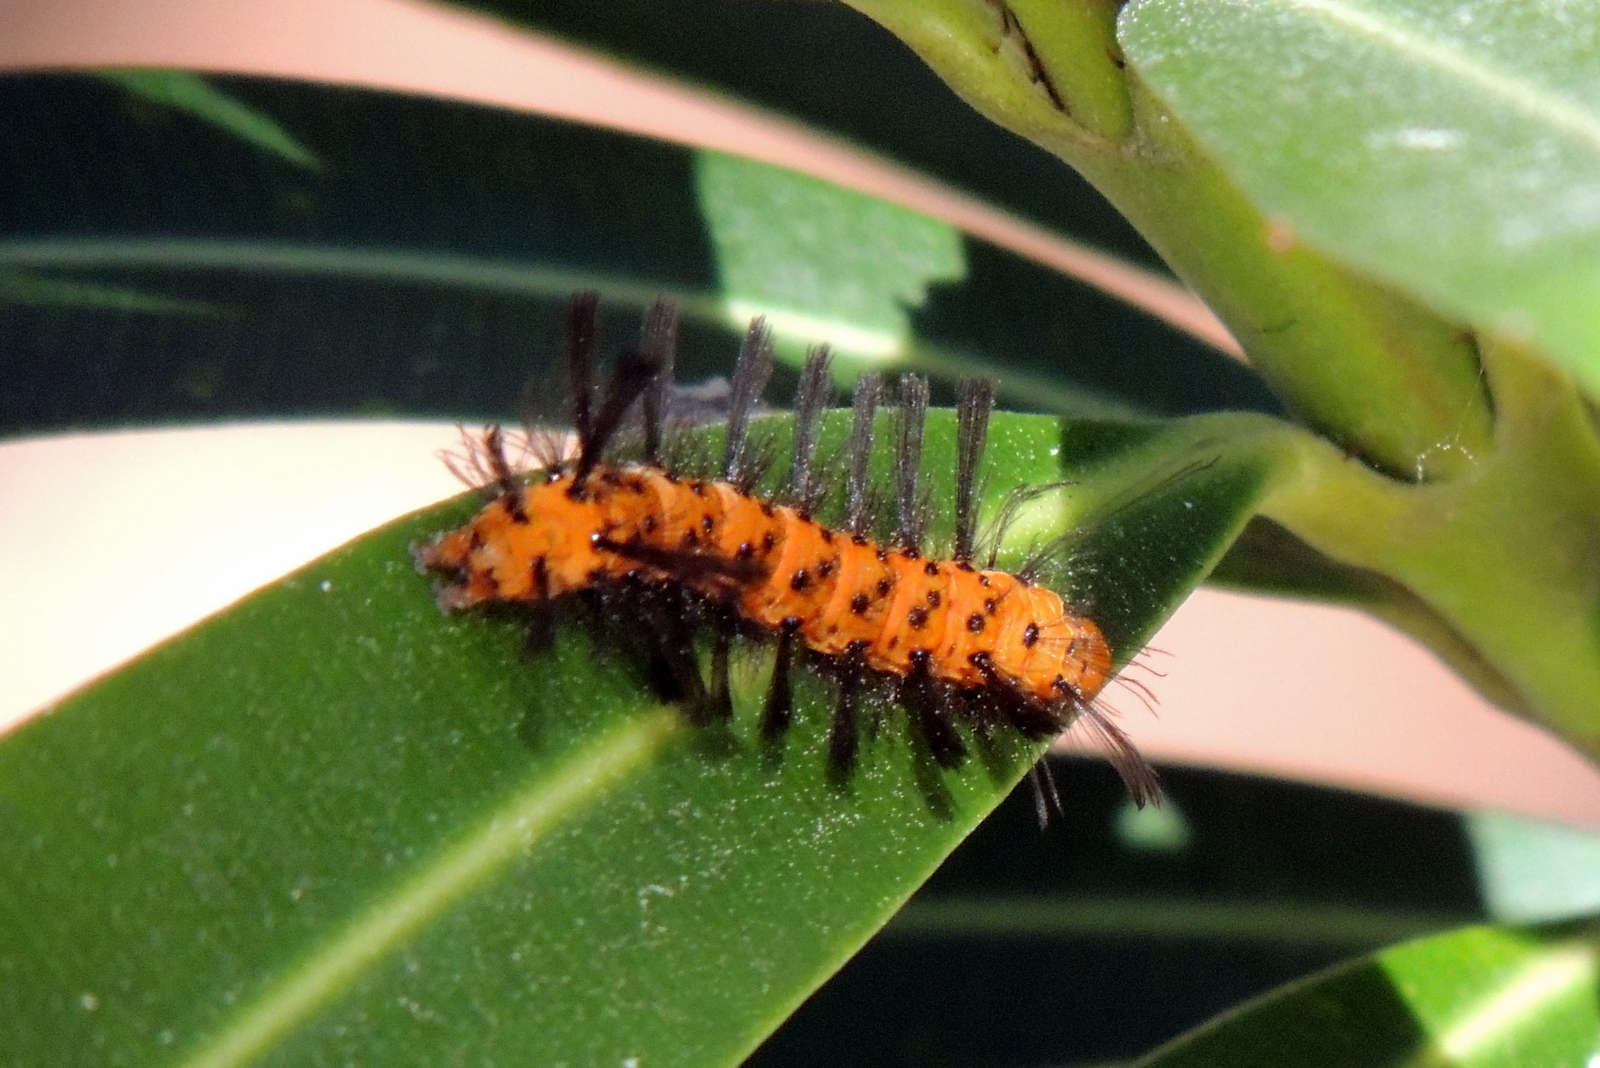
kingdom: Animalia
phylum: Arthropoda
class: Insecta
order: Lepidoptera
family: Erebidae
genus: Syntomeida
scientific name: Syntomeida epilais
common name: Polka-dot wasp moth
